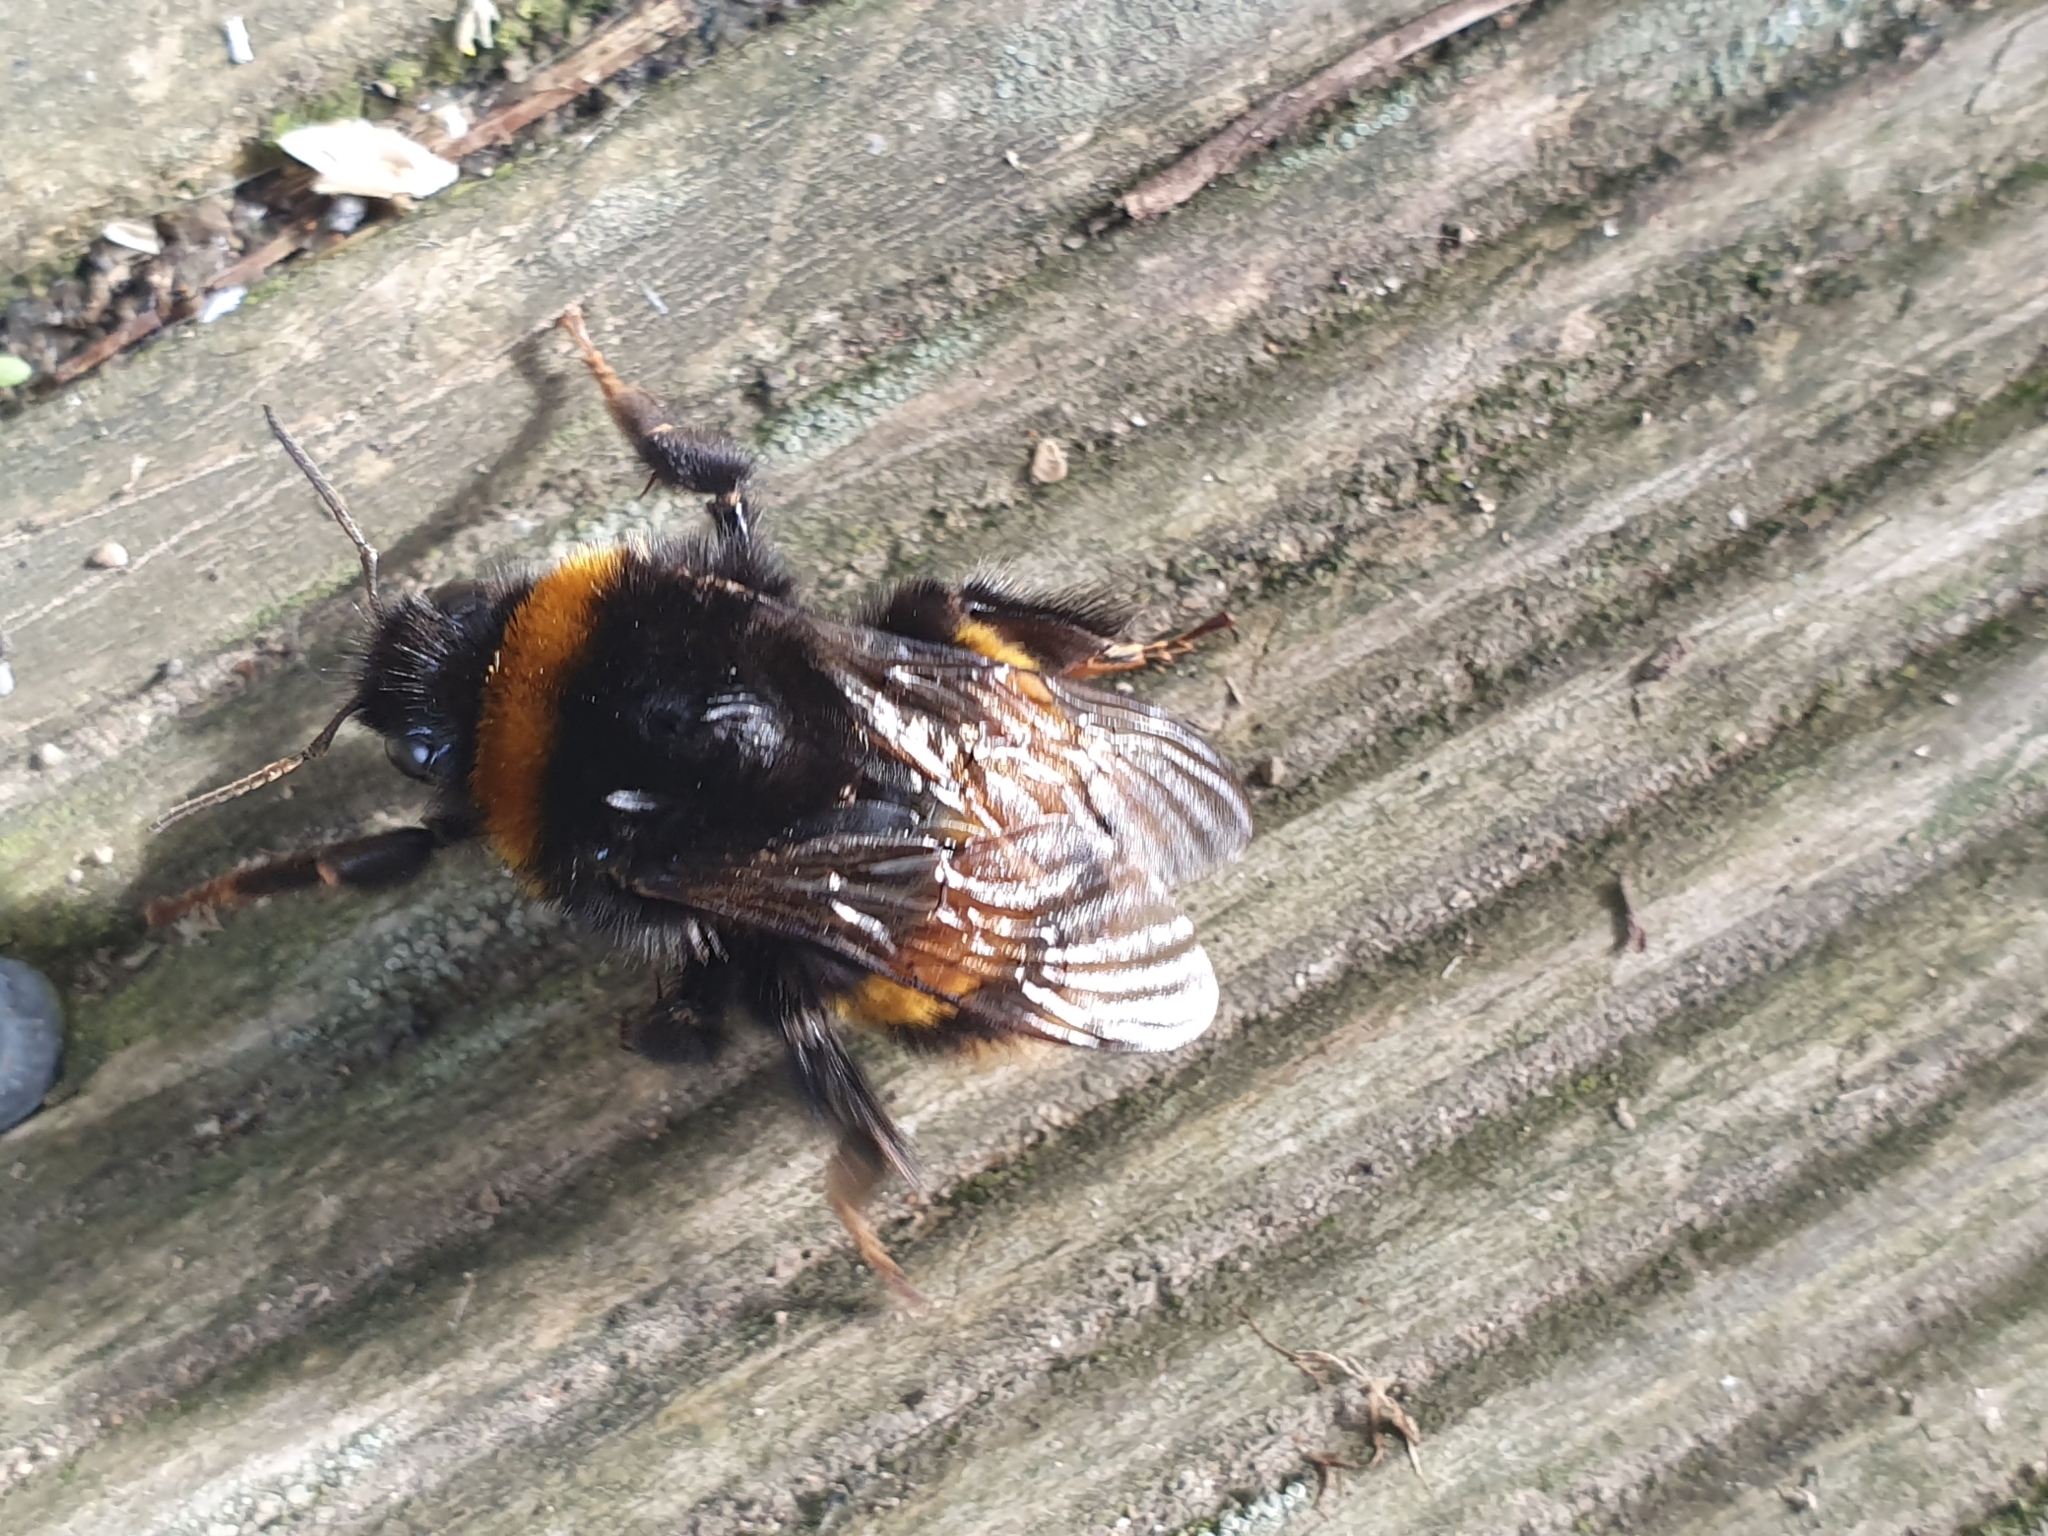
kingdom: Animalia
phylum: Arthropoda
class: Insecta
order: Hymenoptera
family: Apidae
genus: Bombus
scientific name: Bombus terrestris
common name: Buff-tailed bumblebee
